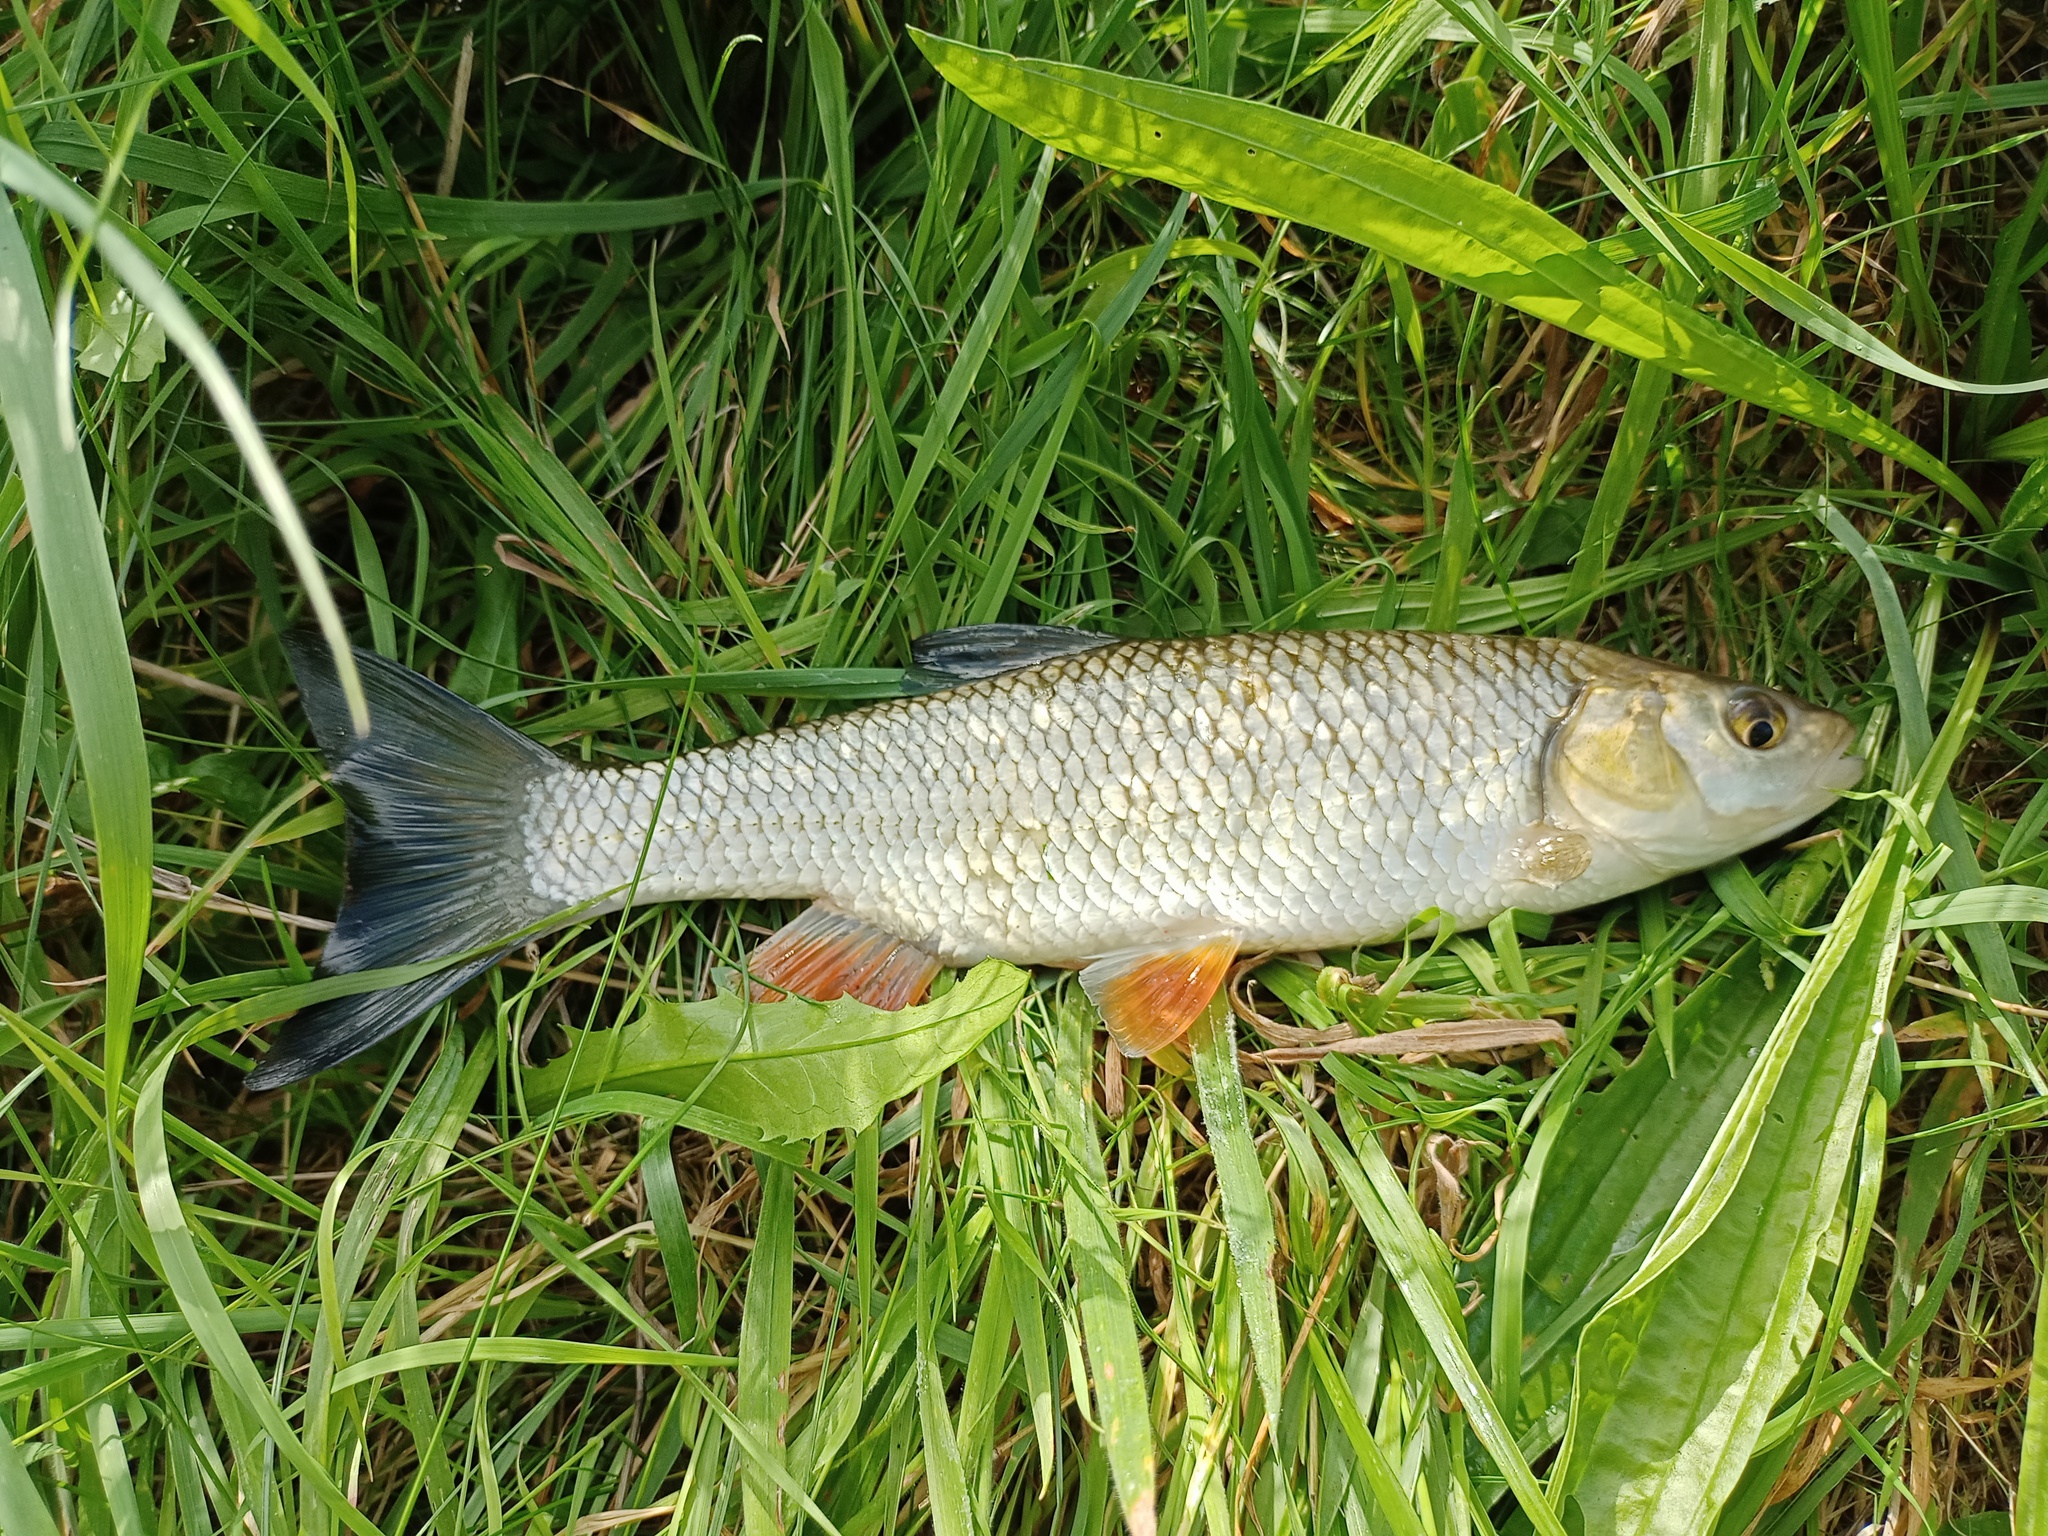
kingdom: Animalia
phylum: Chordata
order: Cypriniformes
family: Cyprinidae
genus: Squalius
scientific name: Squalius cephalus
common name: Chub
